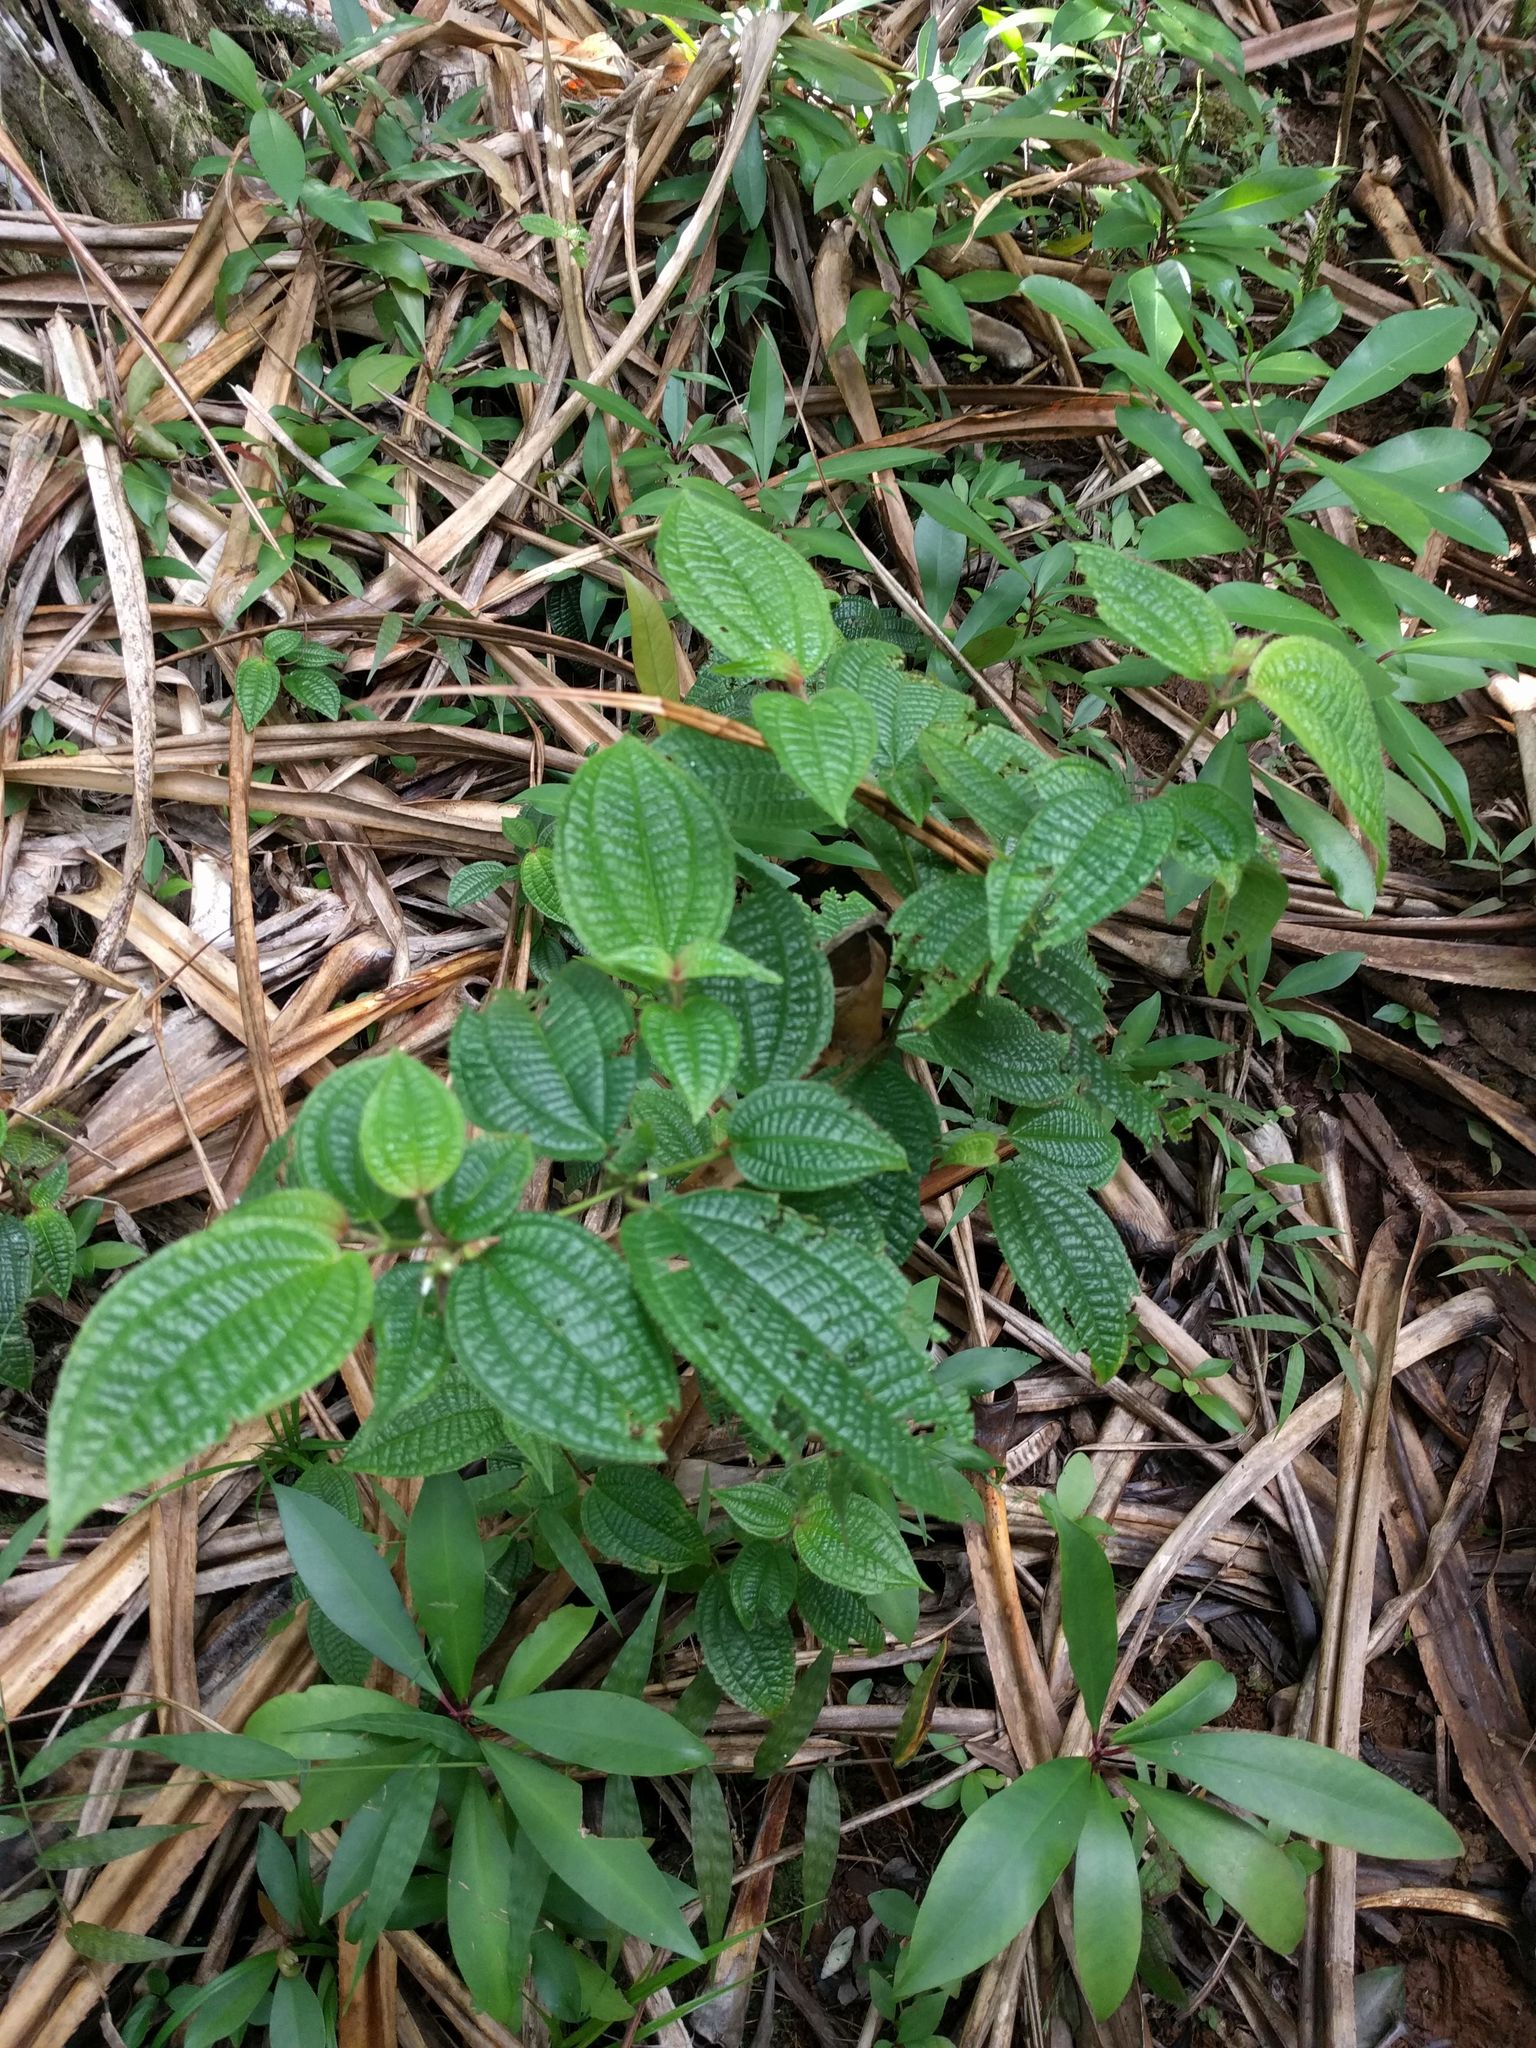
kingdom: Plantae
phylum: Tracheophyta
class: Magnoliopsida
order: Myrtales
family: Melastomataceae
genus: Miconia
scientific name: Miconia crenata
